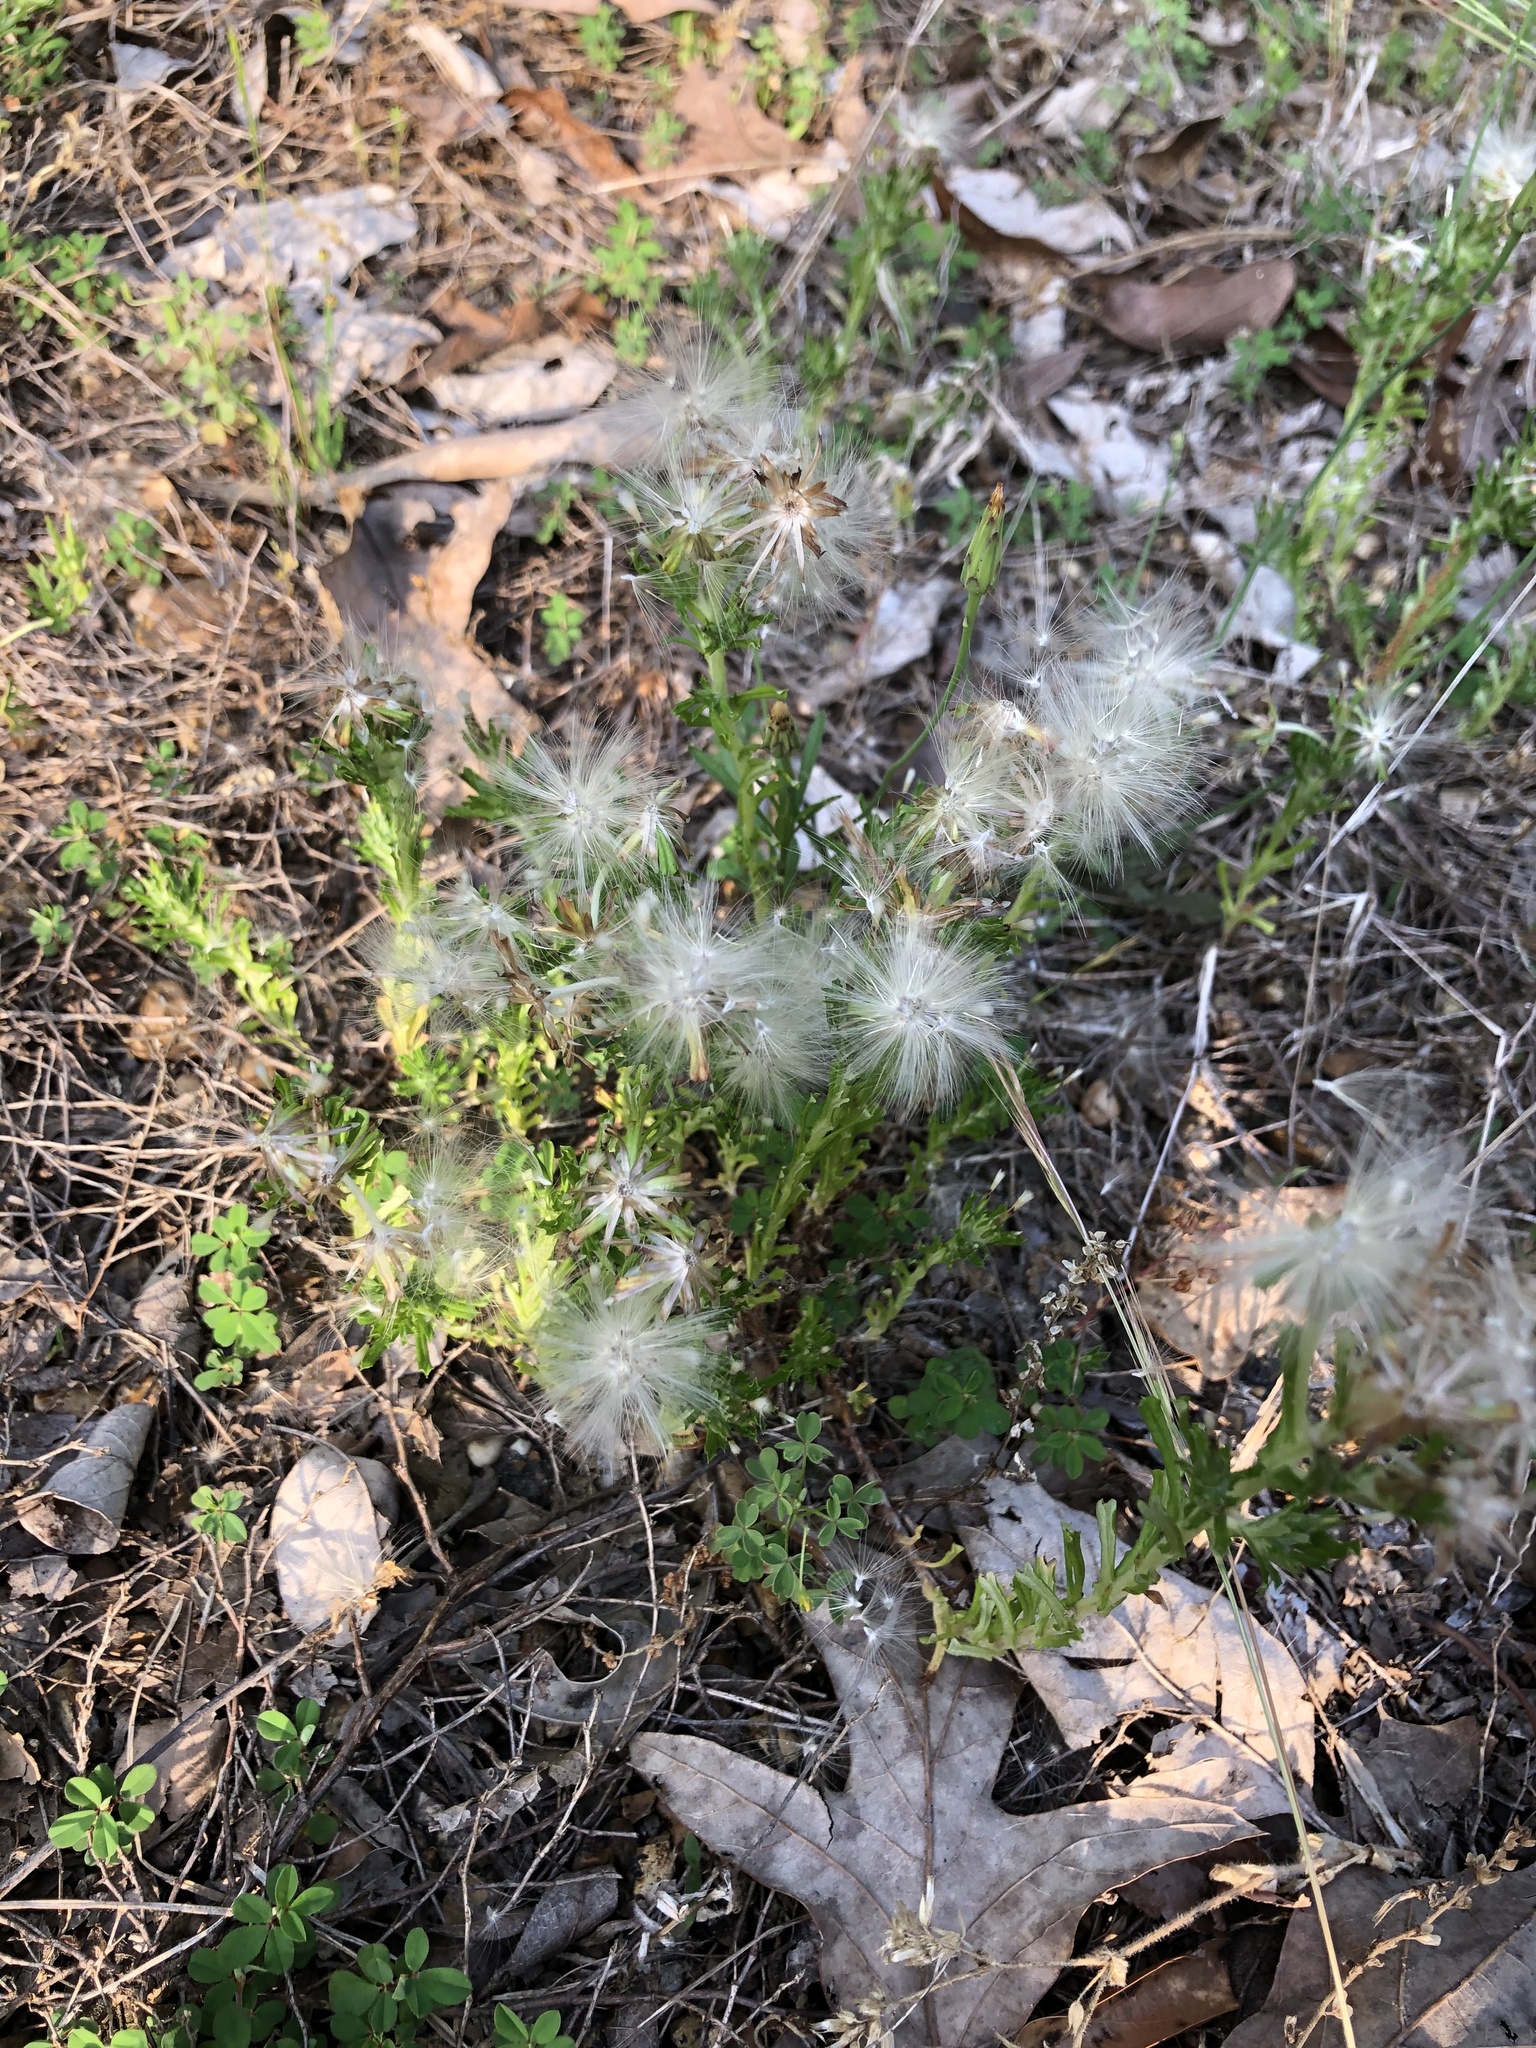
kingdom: Plantae
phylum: Tracheophyta
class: Magnoliopsida
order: Asterales
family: Asteraceae
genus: Facelis
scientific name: Facelis retusa
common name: Annual trampweed
